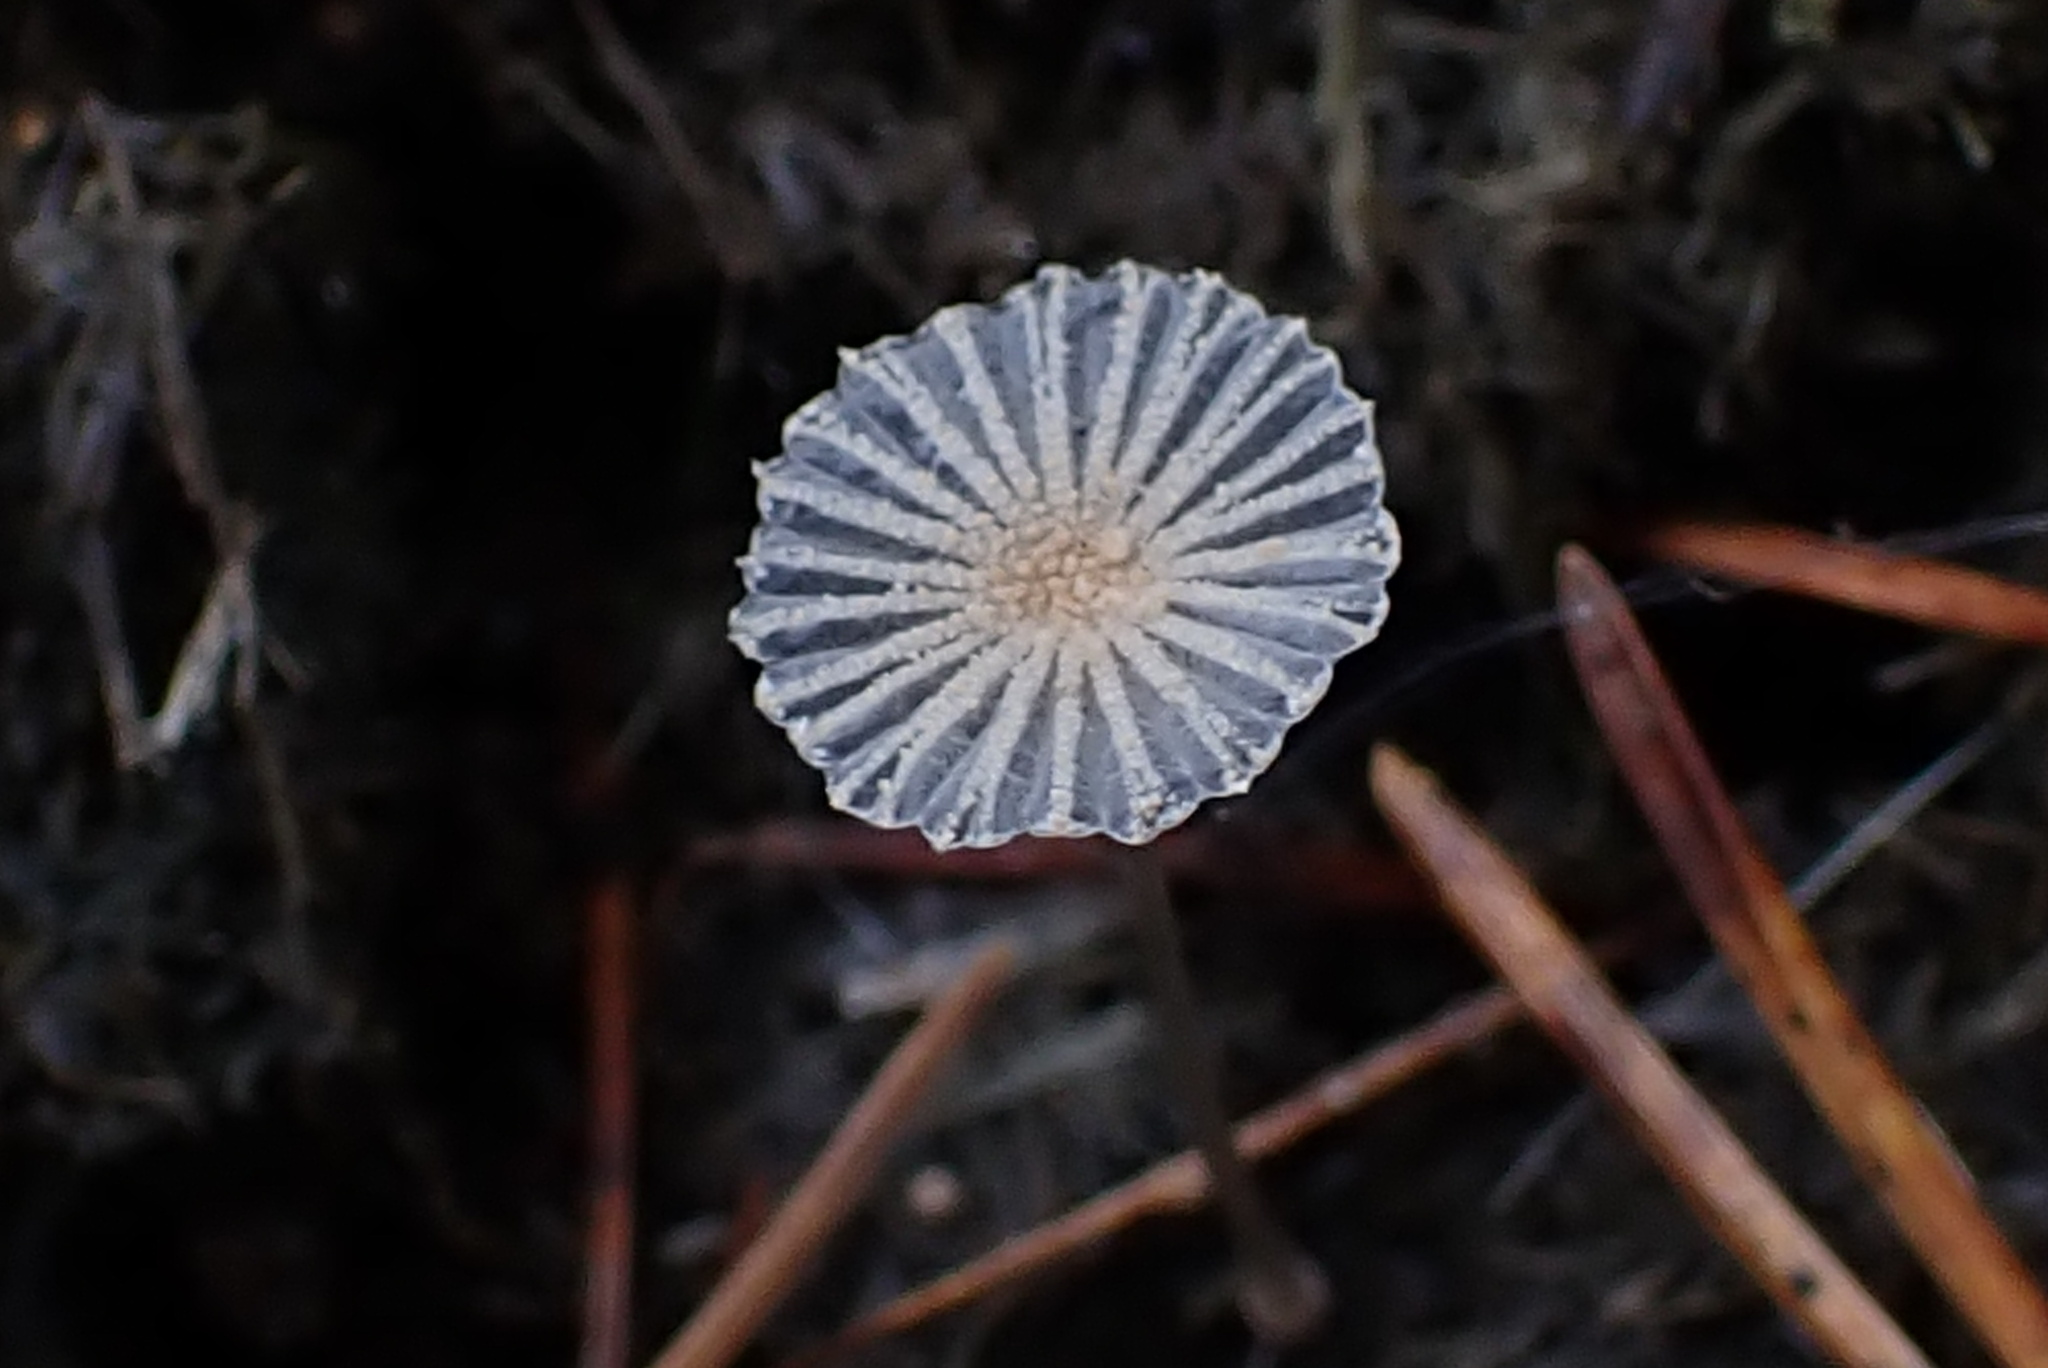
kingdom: Fungi
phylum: Basidiomycota
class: Agaricomycetes
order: Agaricales
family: Psathyrellaceae
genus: Narcissea
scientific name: Narcissea ephemeroides
